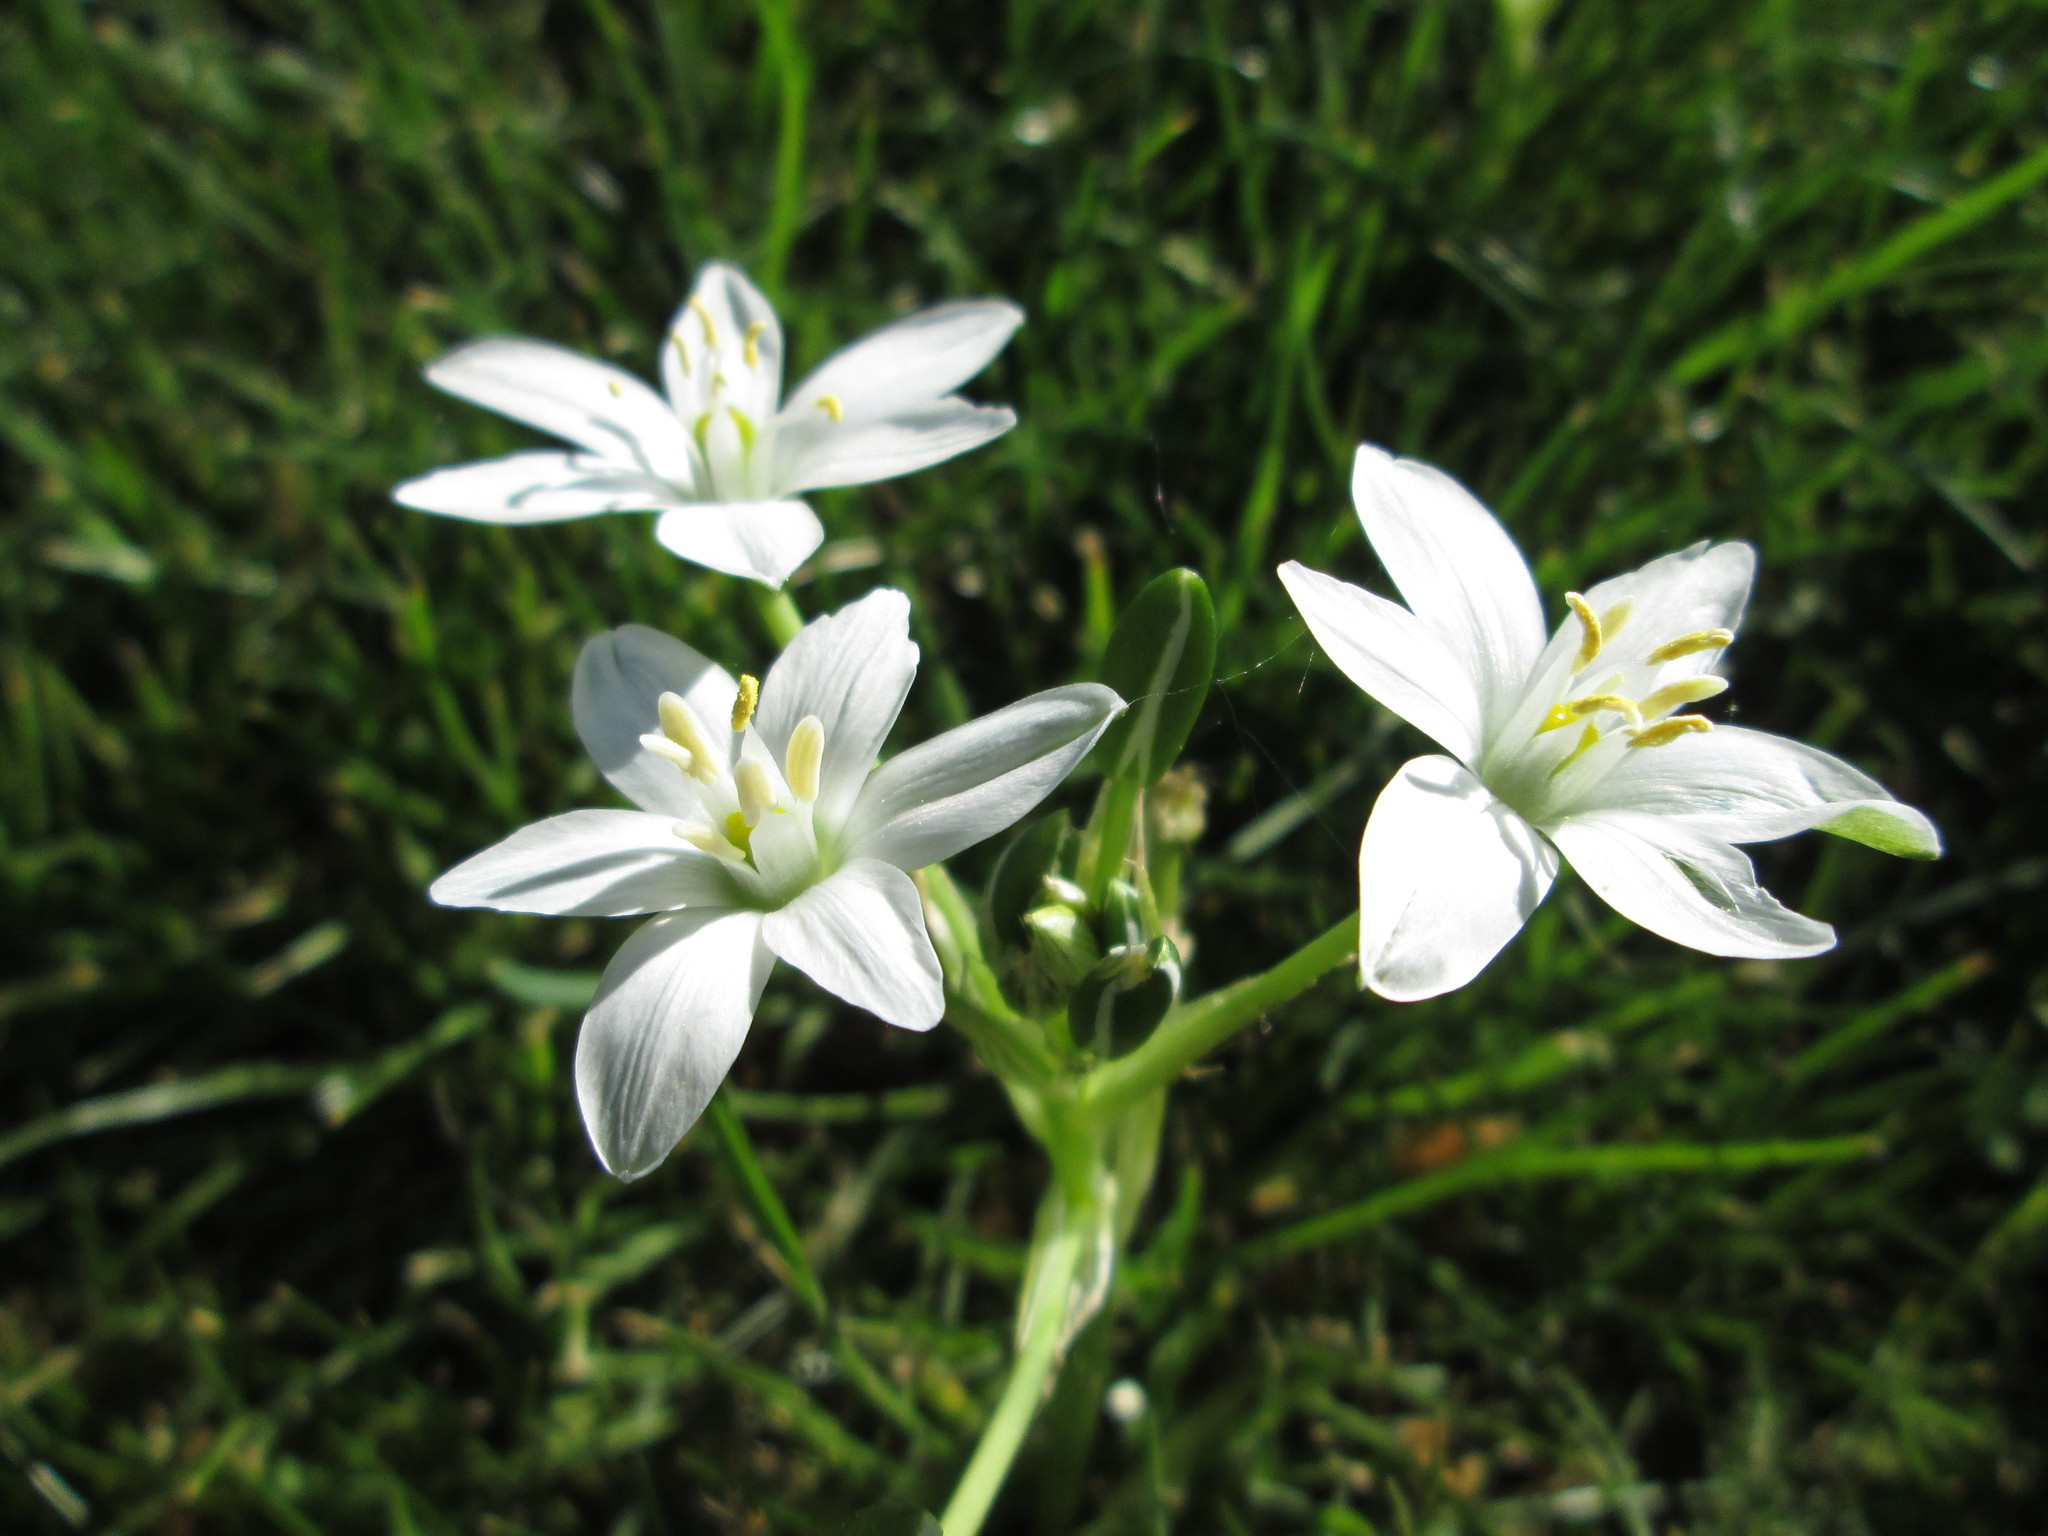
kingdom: Plantae
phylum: Tracheophyta
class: Liliopsida
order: Asparagales
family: Asparagaceae
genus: Ornithogalum
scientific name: Ornithogalum umbellatum
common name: Garden star-of-bethlehem
